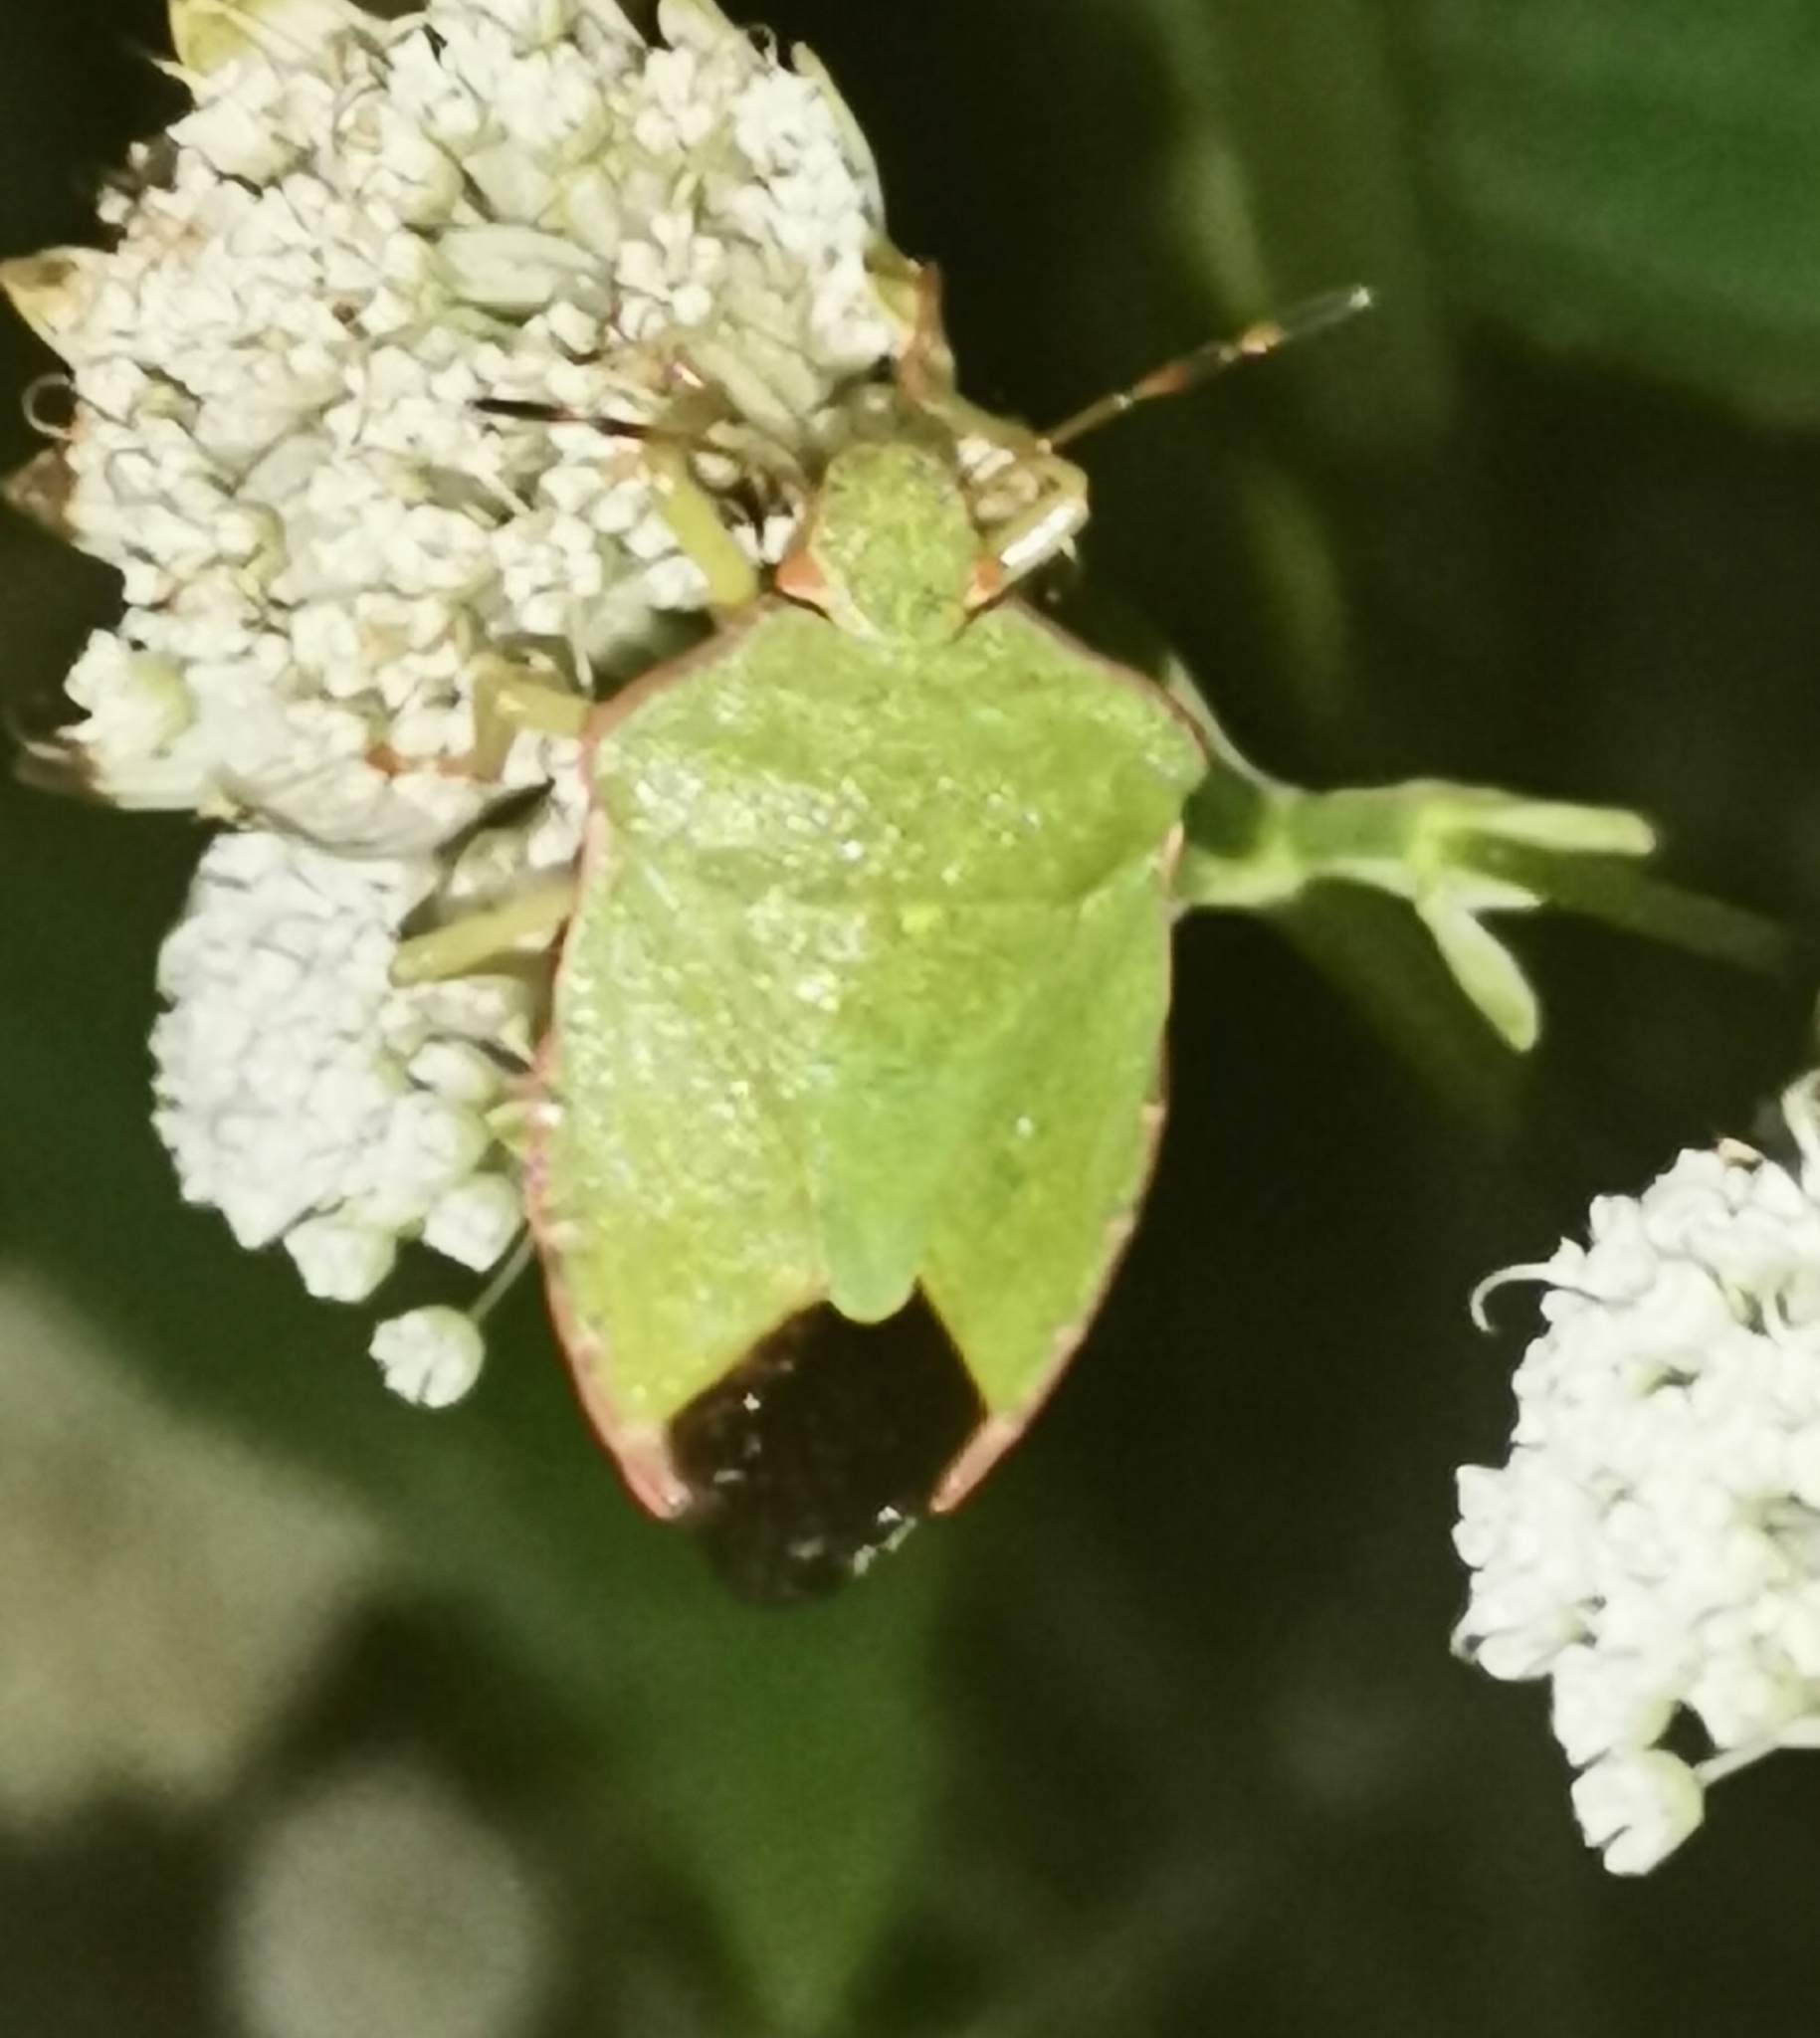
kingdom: Animalia
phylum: Arthropoda
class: Insecta
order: Hemiptera
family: Pentatomidae
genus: Palomena
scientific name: Palomena prasina
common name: Green shieldbug
